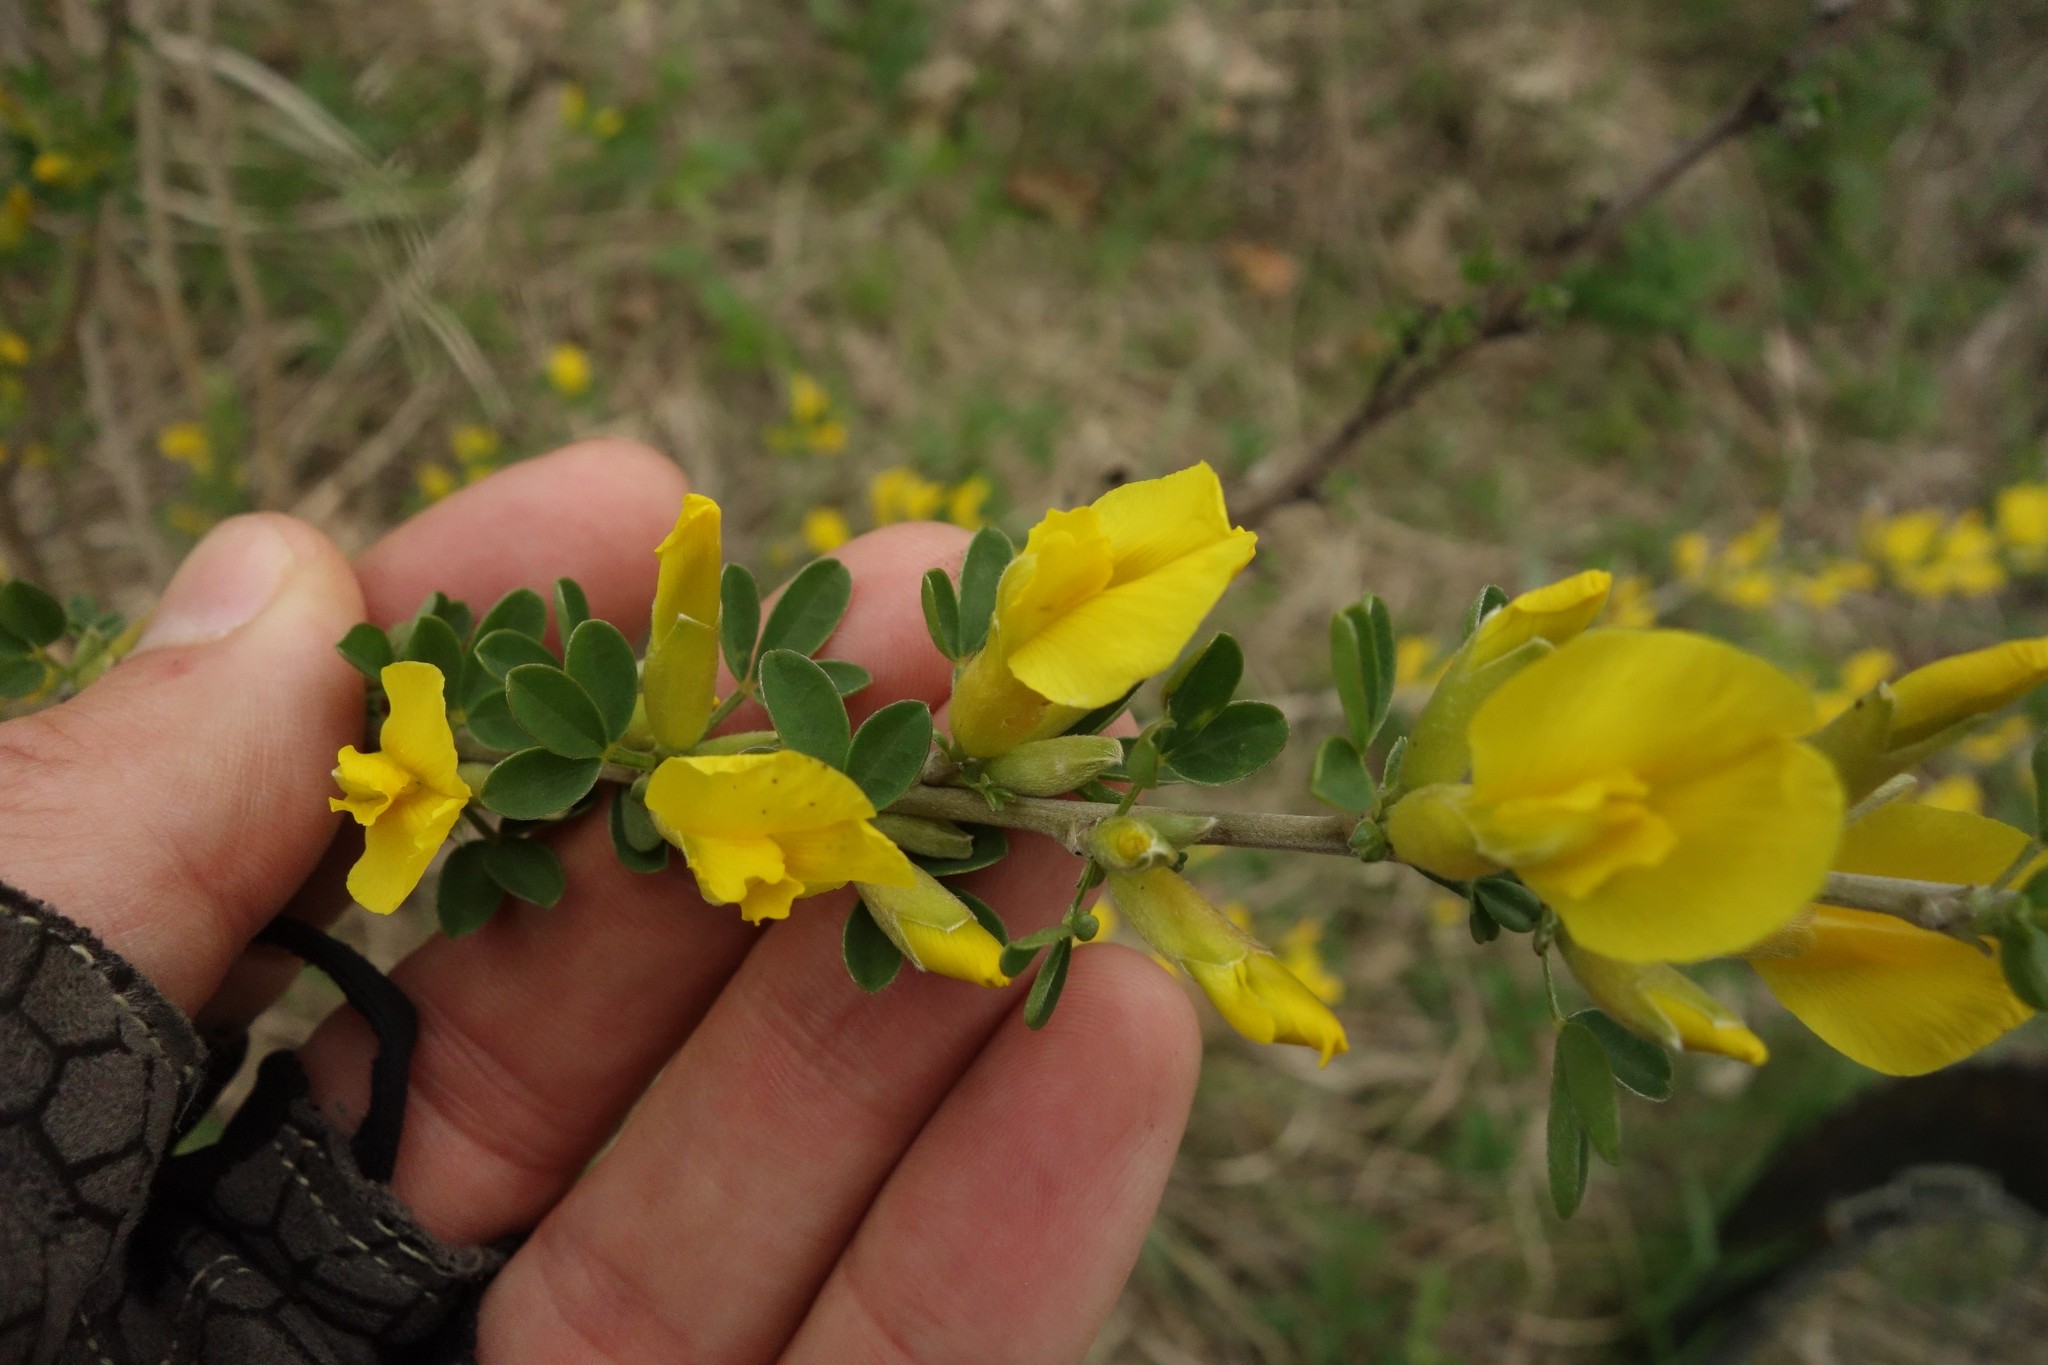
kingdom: Plantae
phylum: Tracheophyta
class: Magnoliopsida
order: Fabales
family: Fabaceae
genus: Chamaecytisus
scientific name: Chamaecytisus ruthenicus
